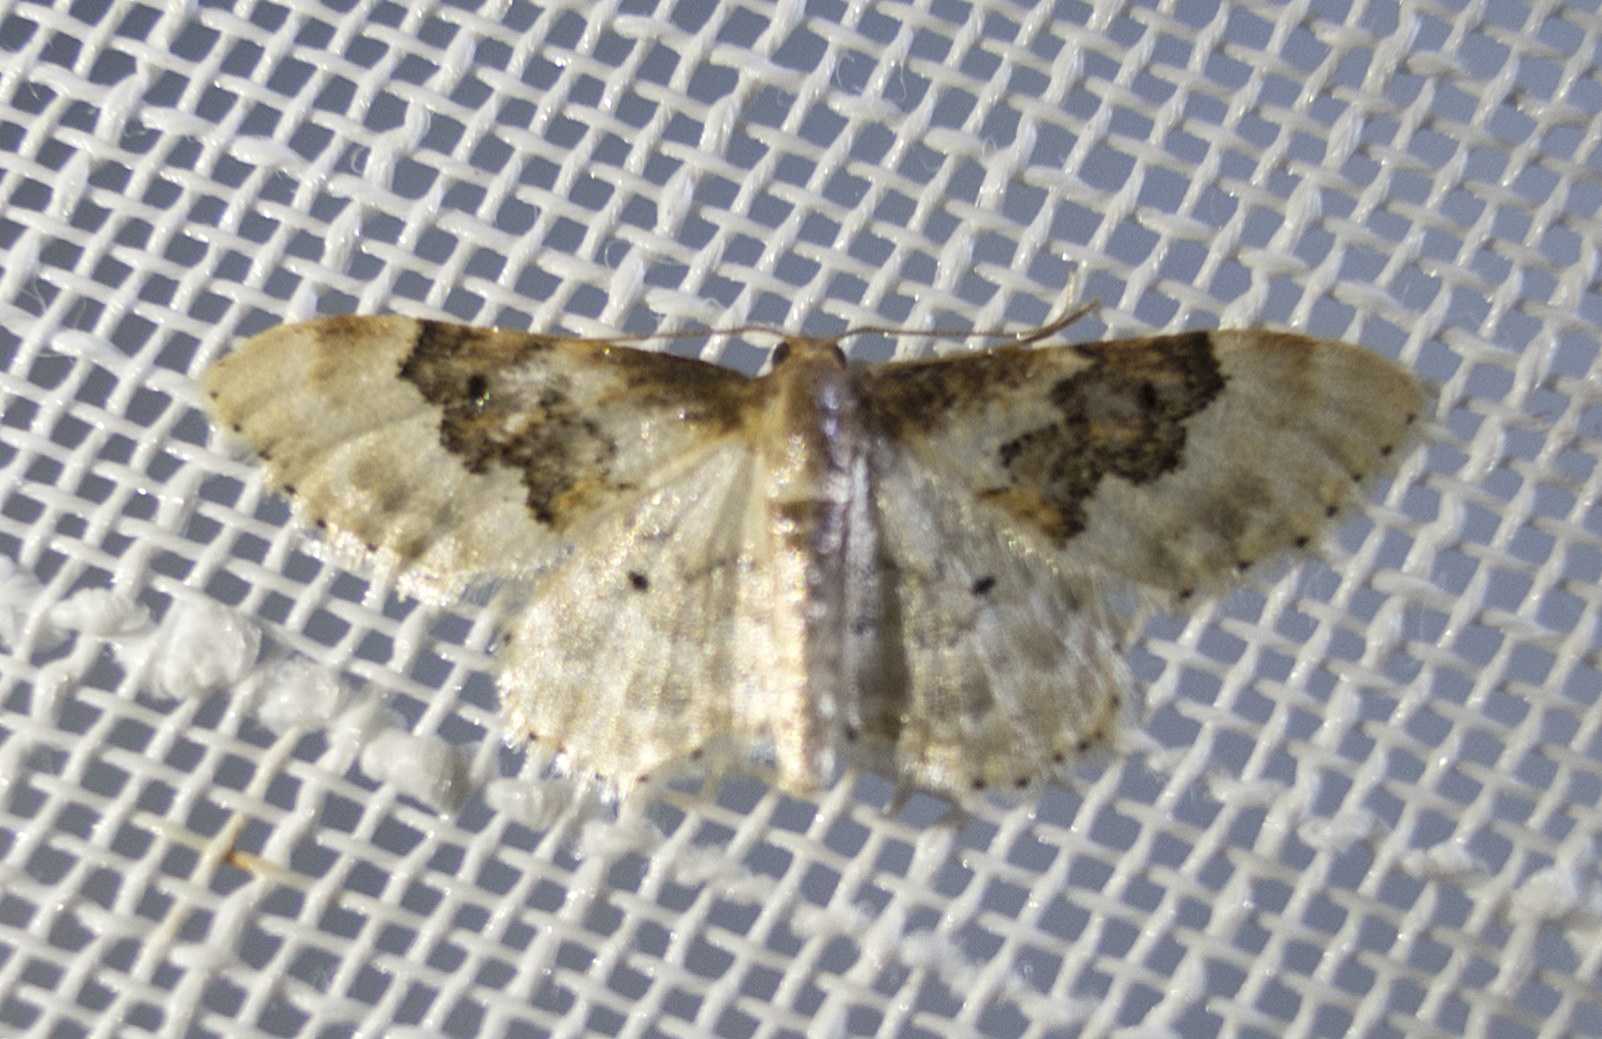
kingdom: Animalia
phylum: Arthropoda
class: Insecta
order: Lepidoptera
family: Geometridae
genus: Idaea
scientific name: Idaea rusticata
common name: Least carpet
